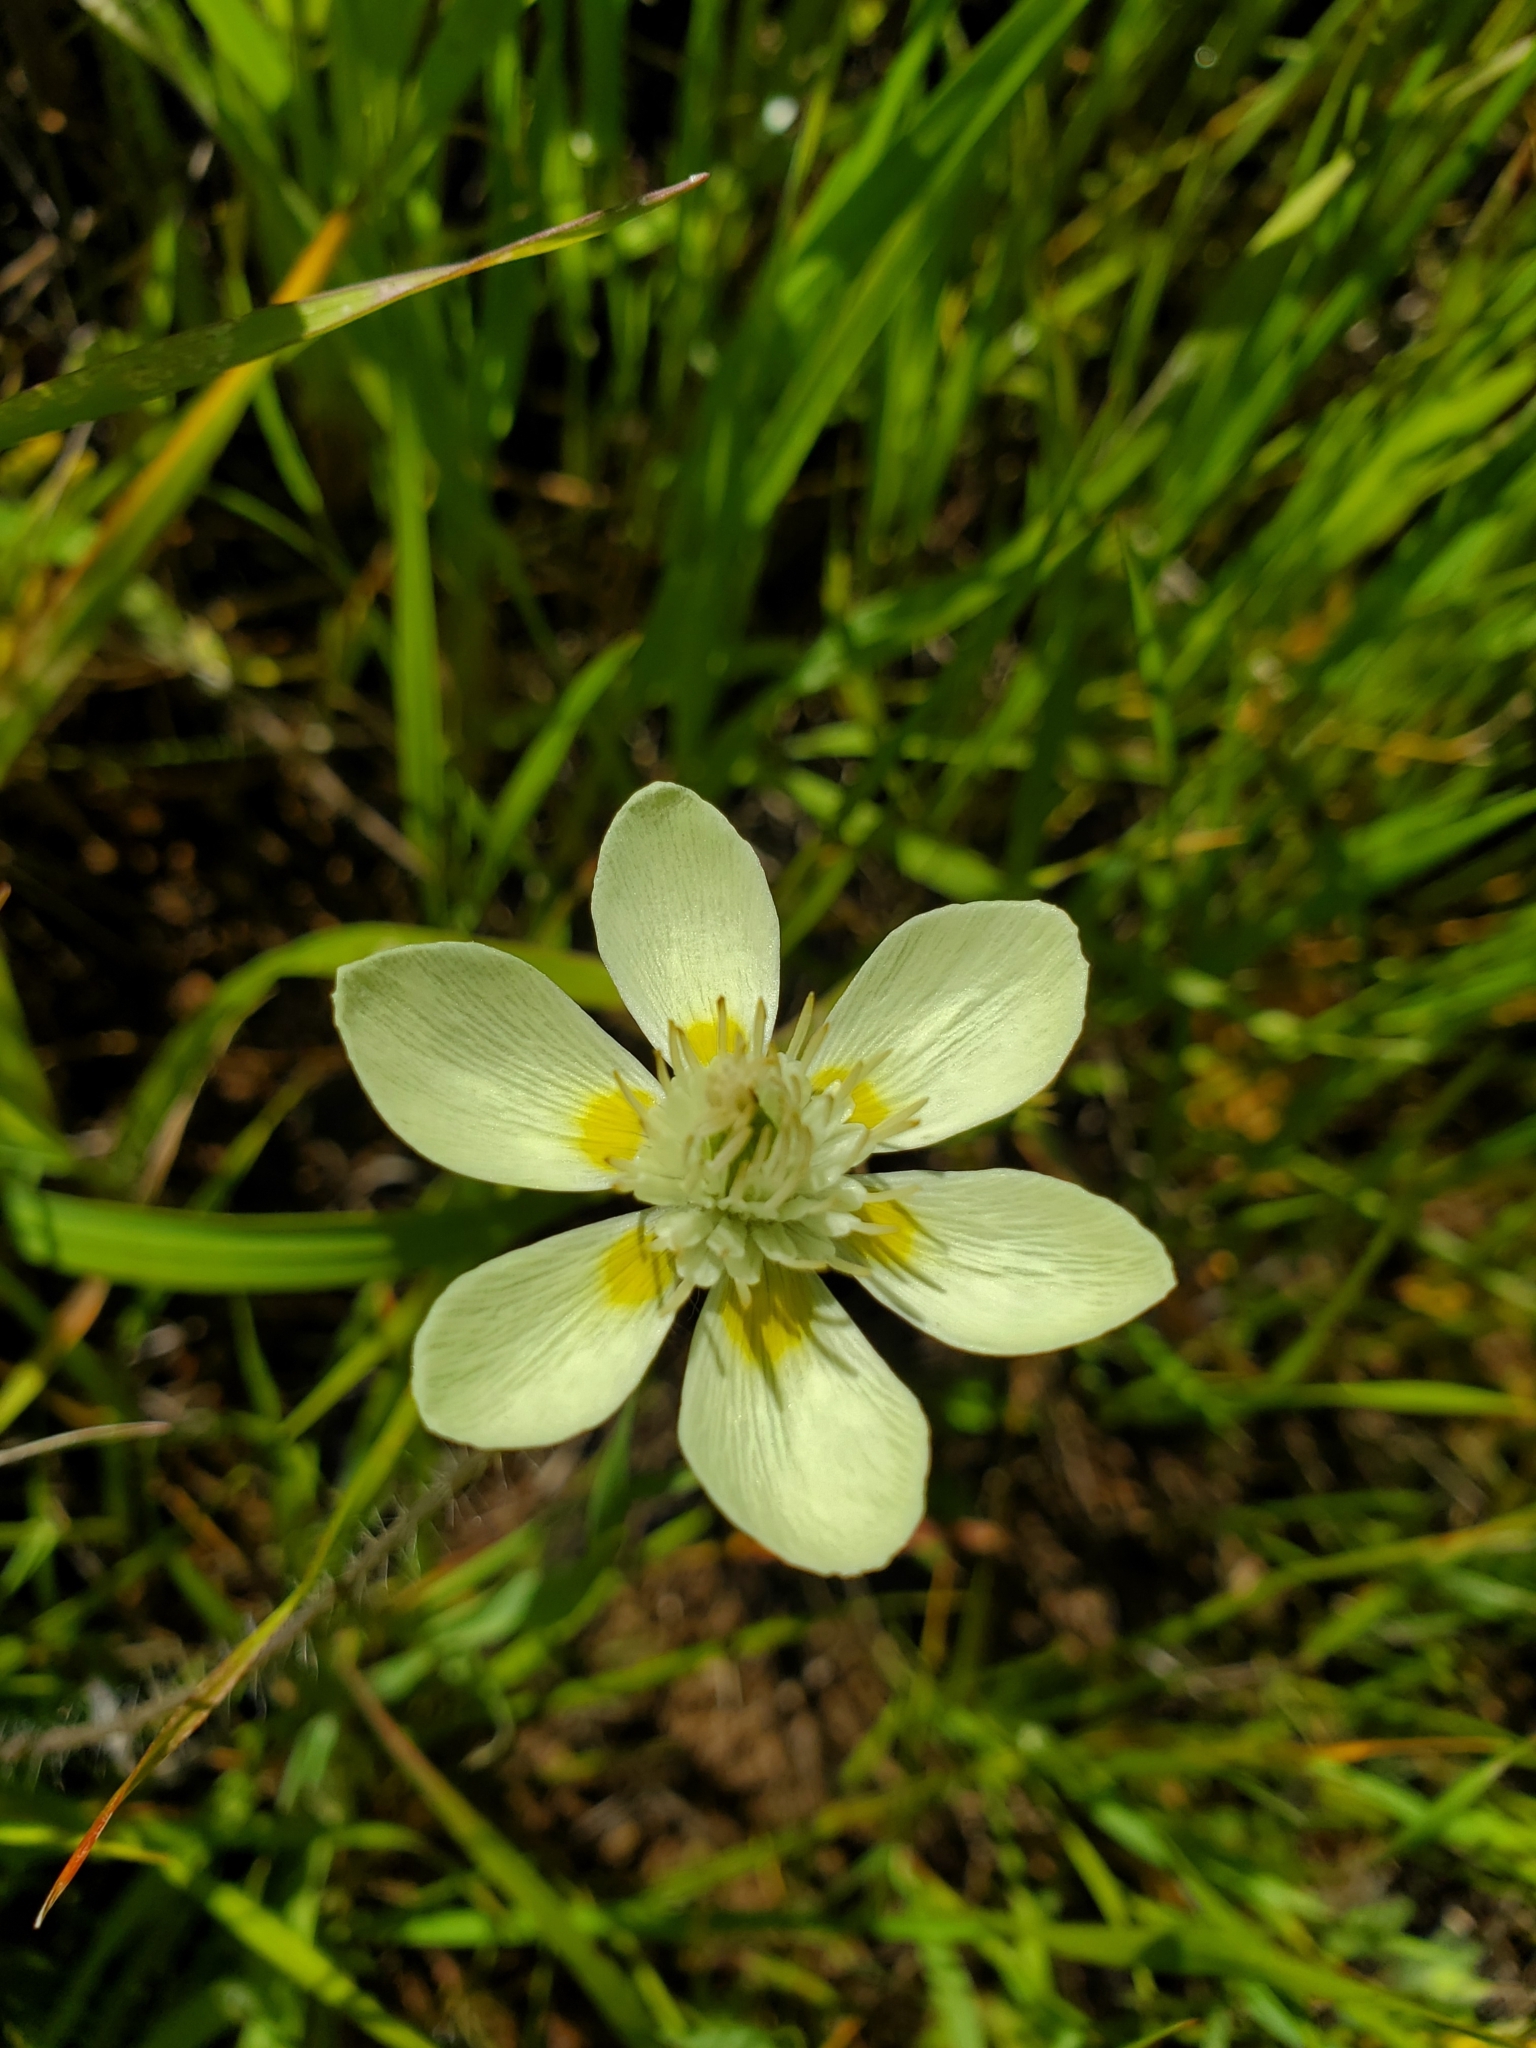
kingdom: Plantae
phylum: Tracheophyta
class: Magnoliopsida
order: Ranunculales
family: Papaveraceae
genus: Platystemon
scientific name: Platystemon californicus
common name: Cream-cups
